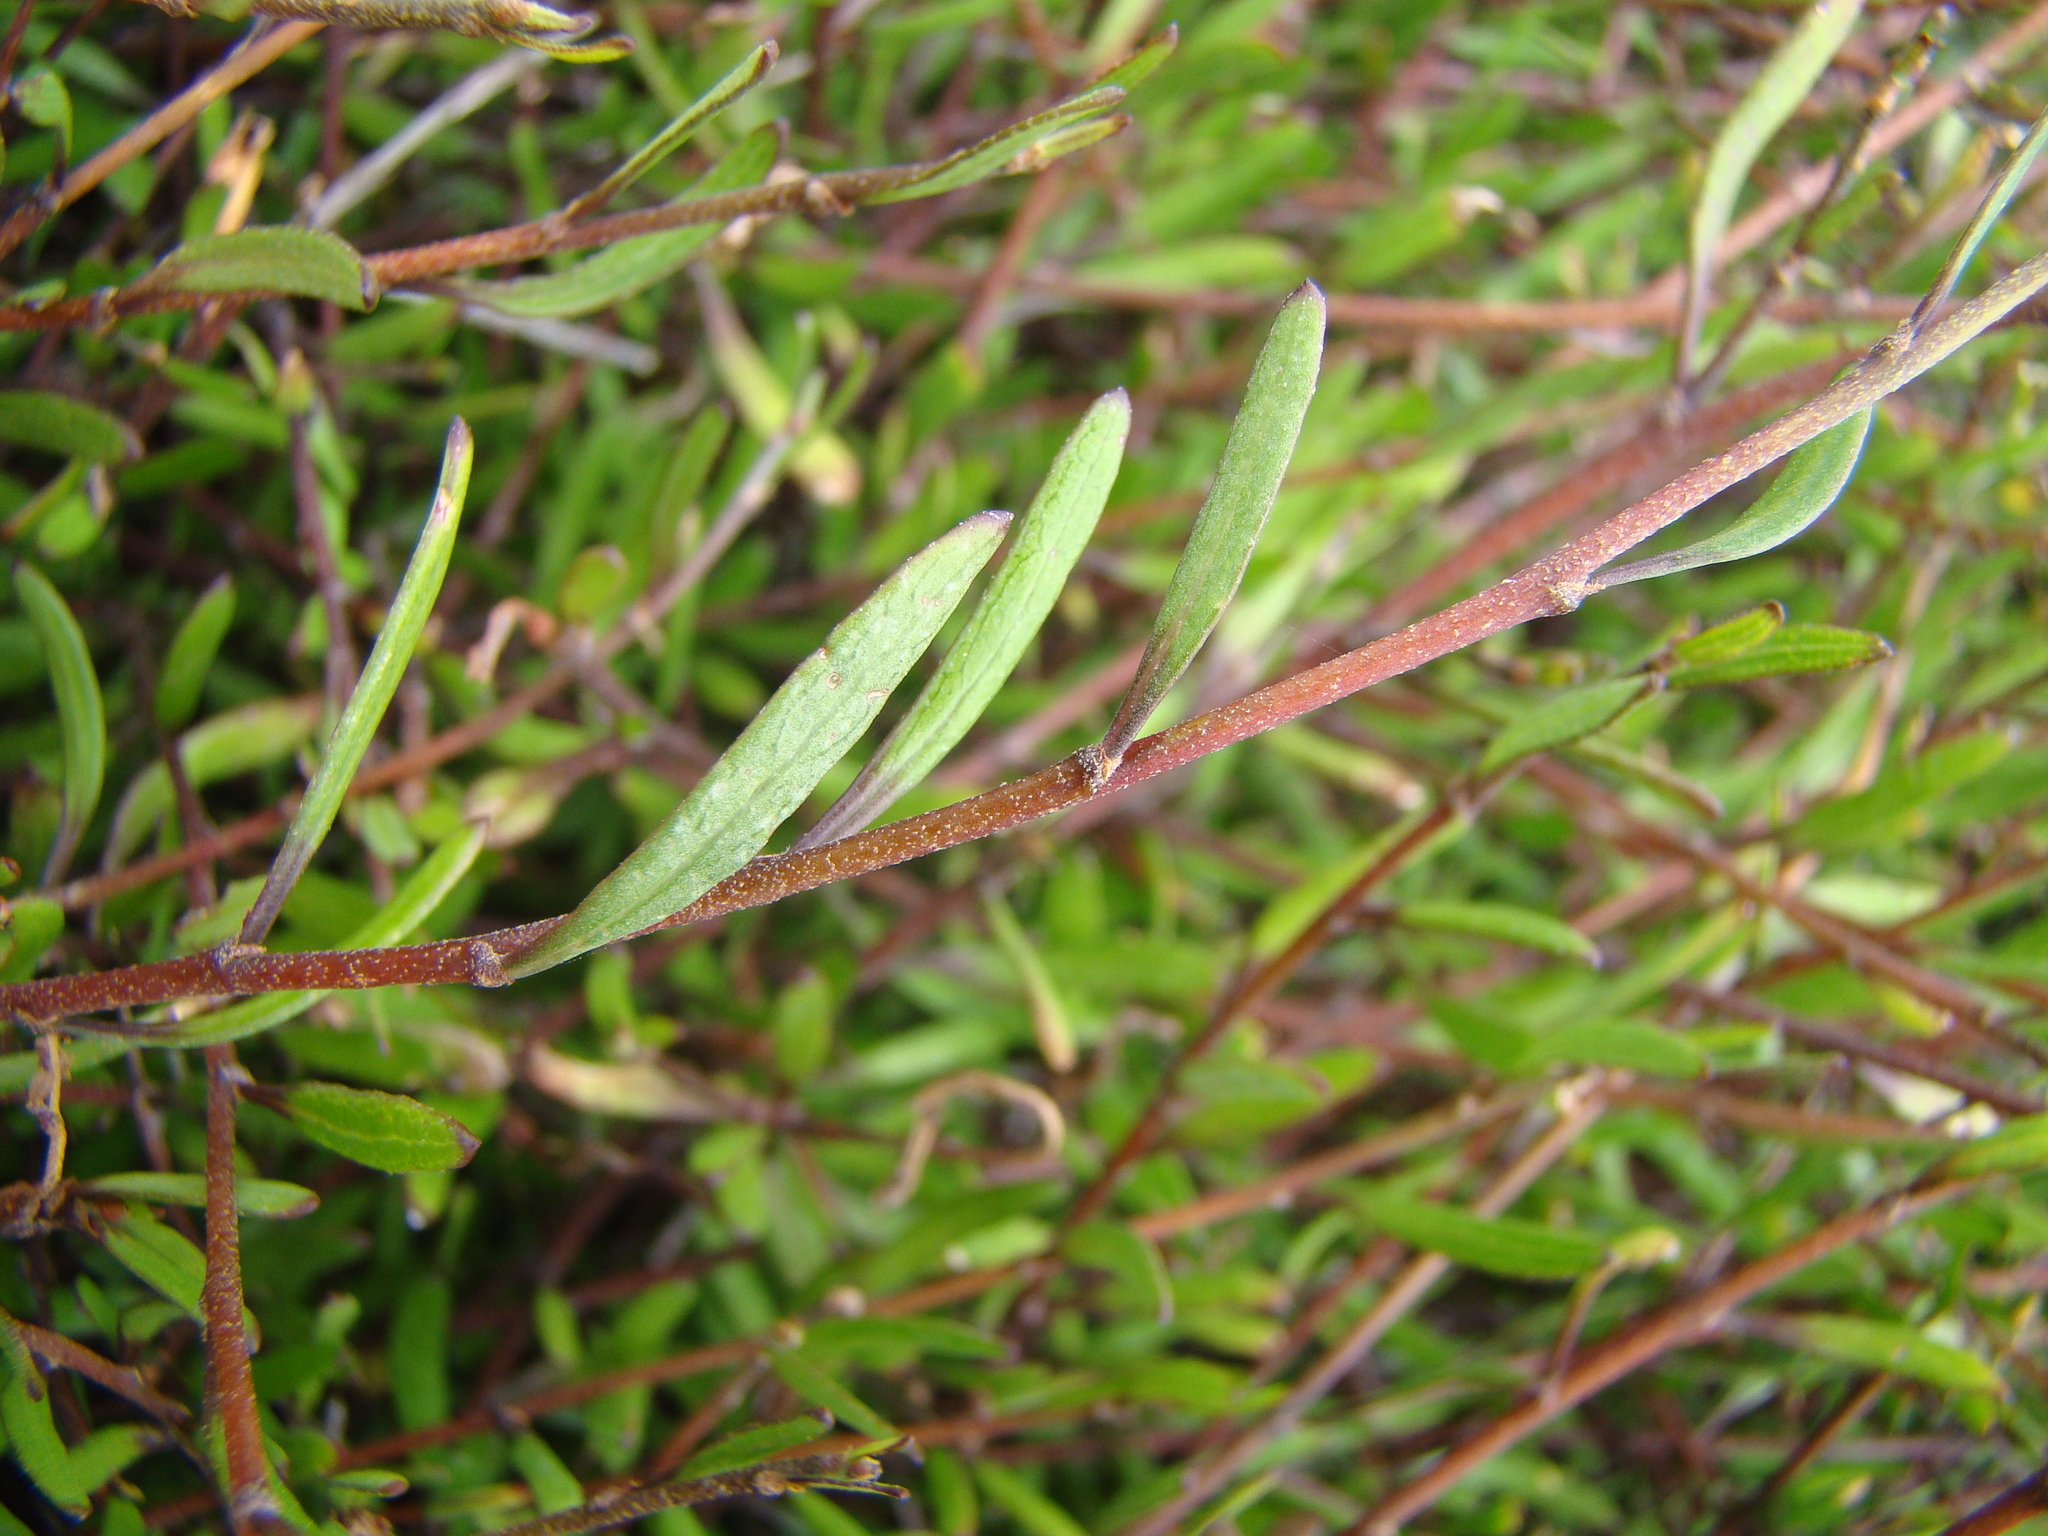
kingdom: Plantae
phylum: Tracheophyta
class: Magnoliopsida
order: Malvales
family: Malvaceae
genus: Plagianthus
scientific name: Plagianthus divaricatus
